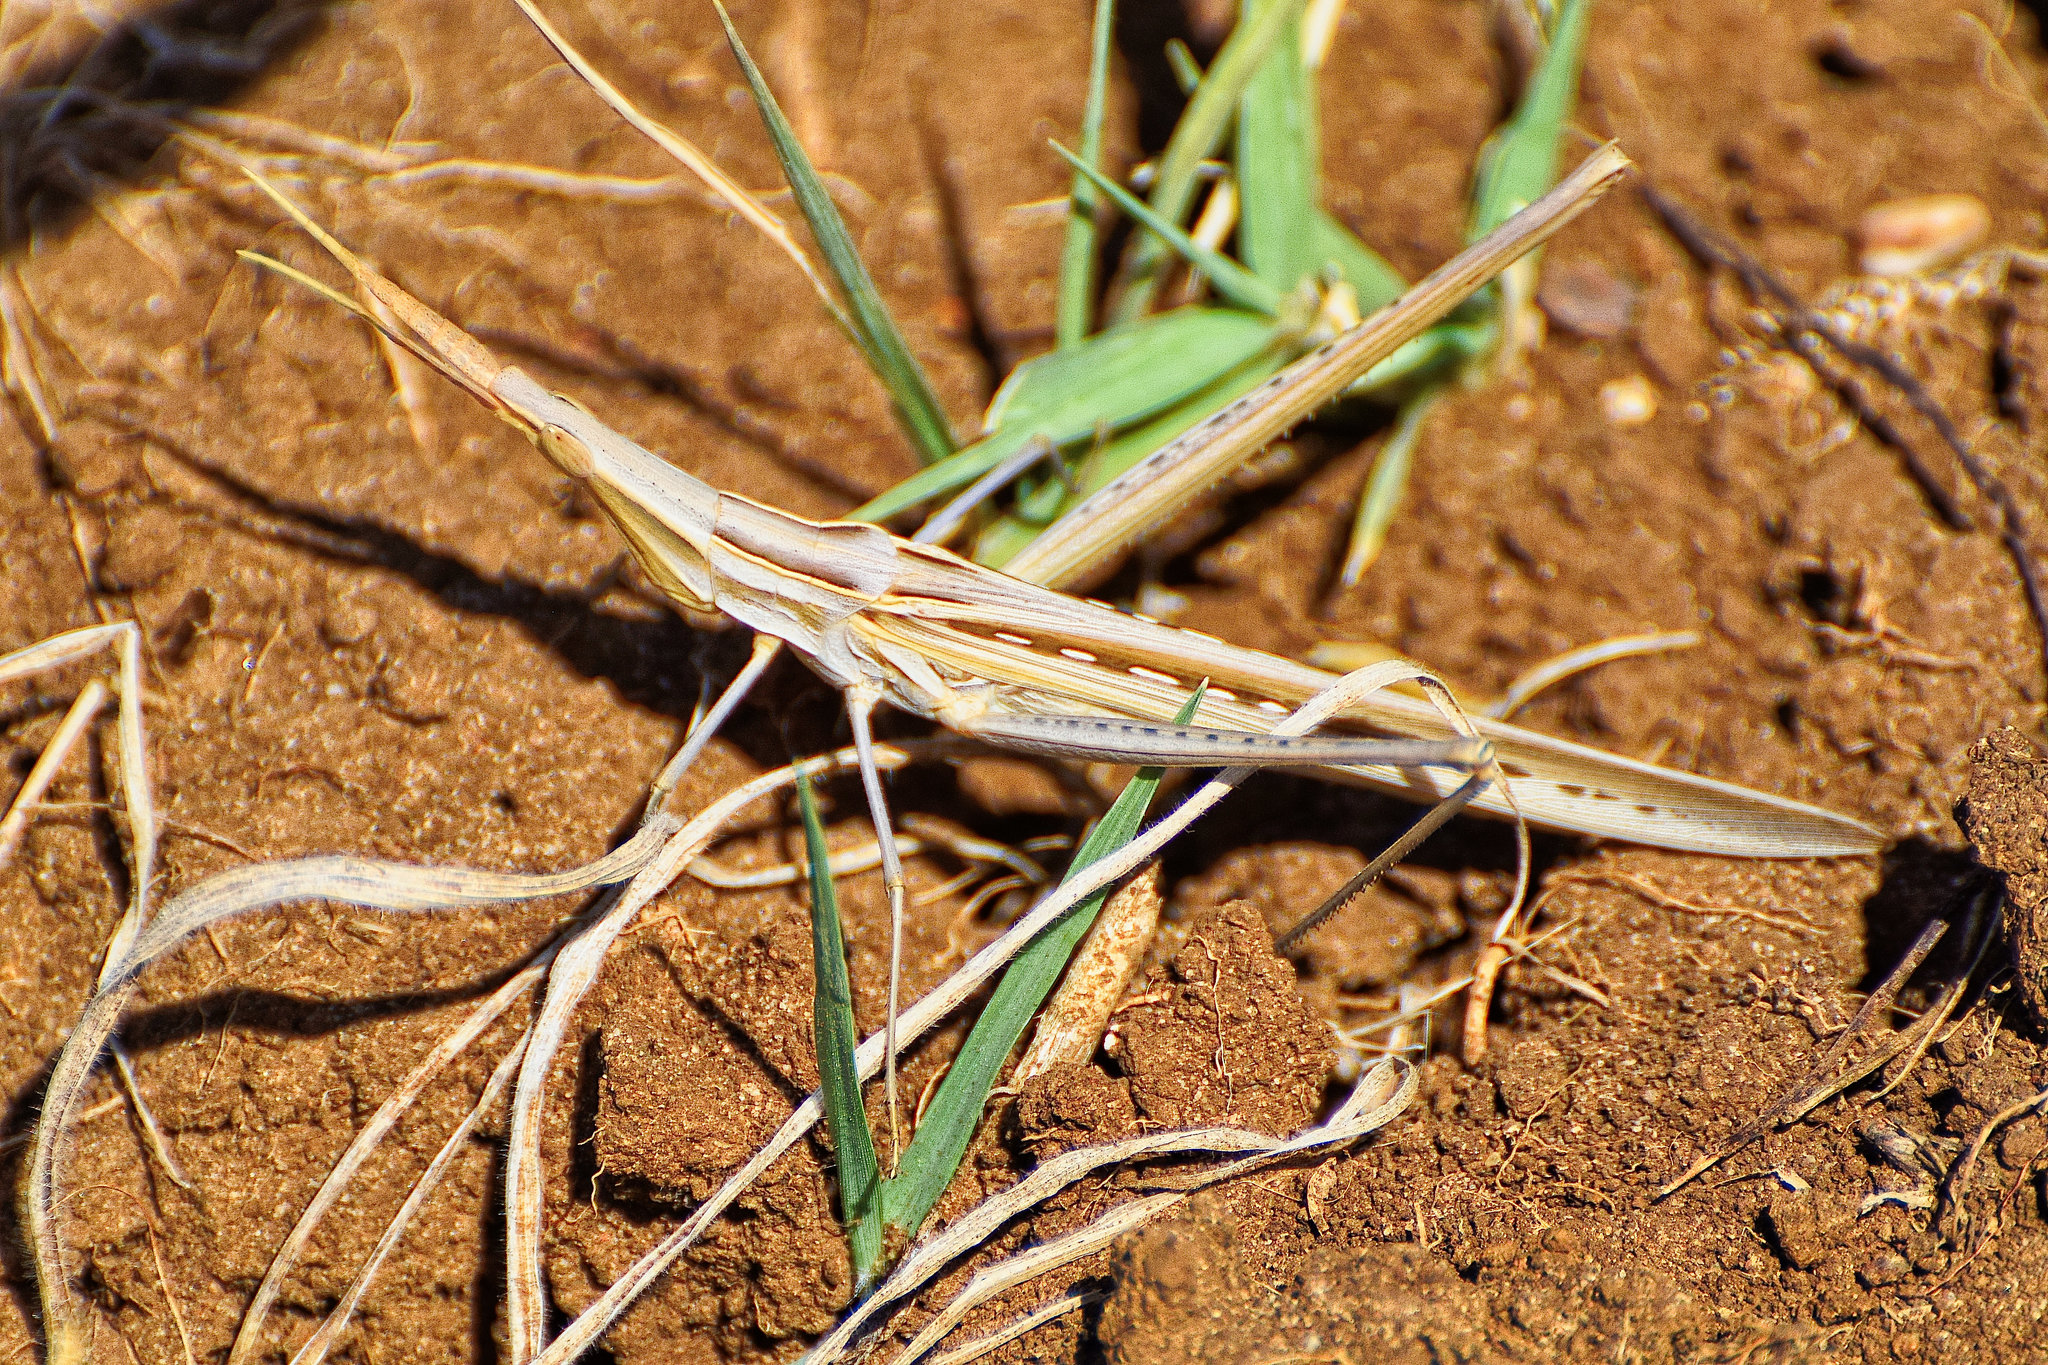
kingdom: Animalia
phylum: Arthropoda
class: Insecta
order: Orthoptera
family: Acrididae
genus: Acrida
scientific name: Acrida ungarica
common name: Common cone-headed grasshopper
